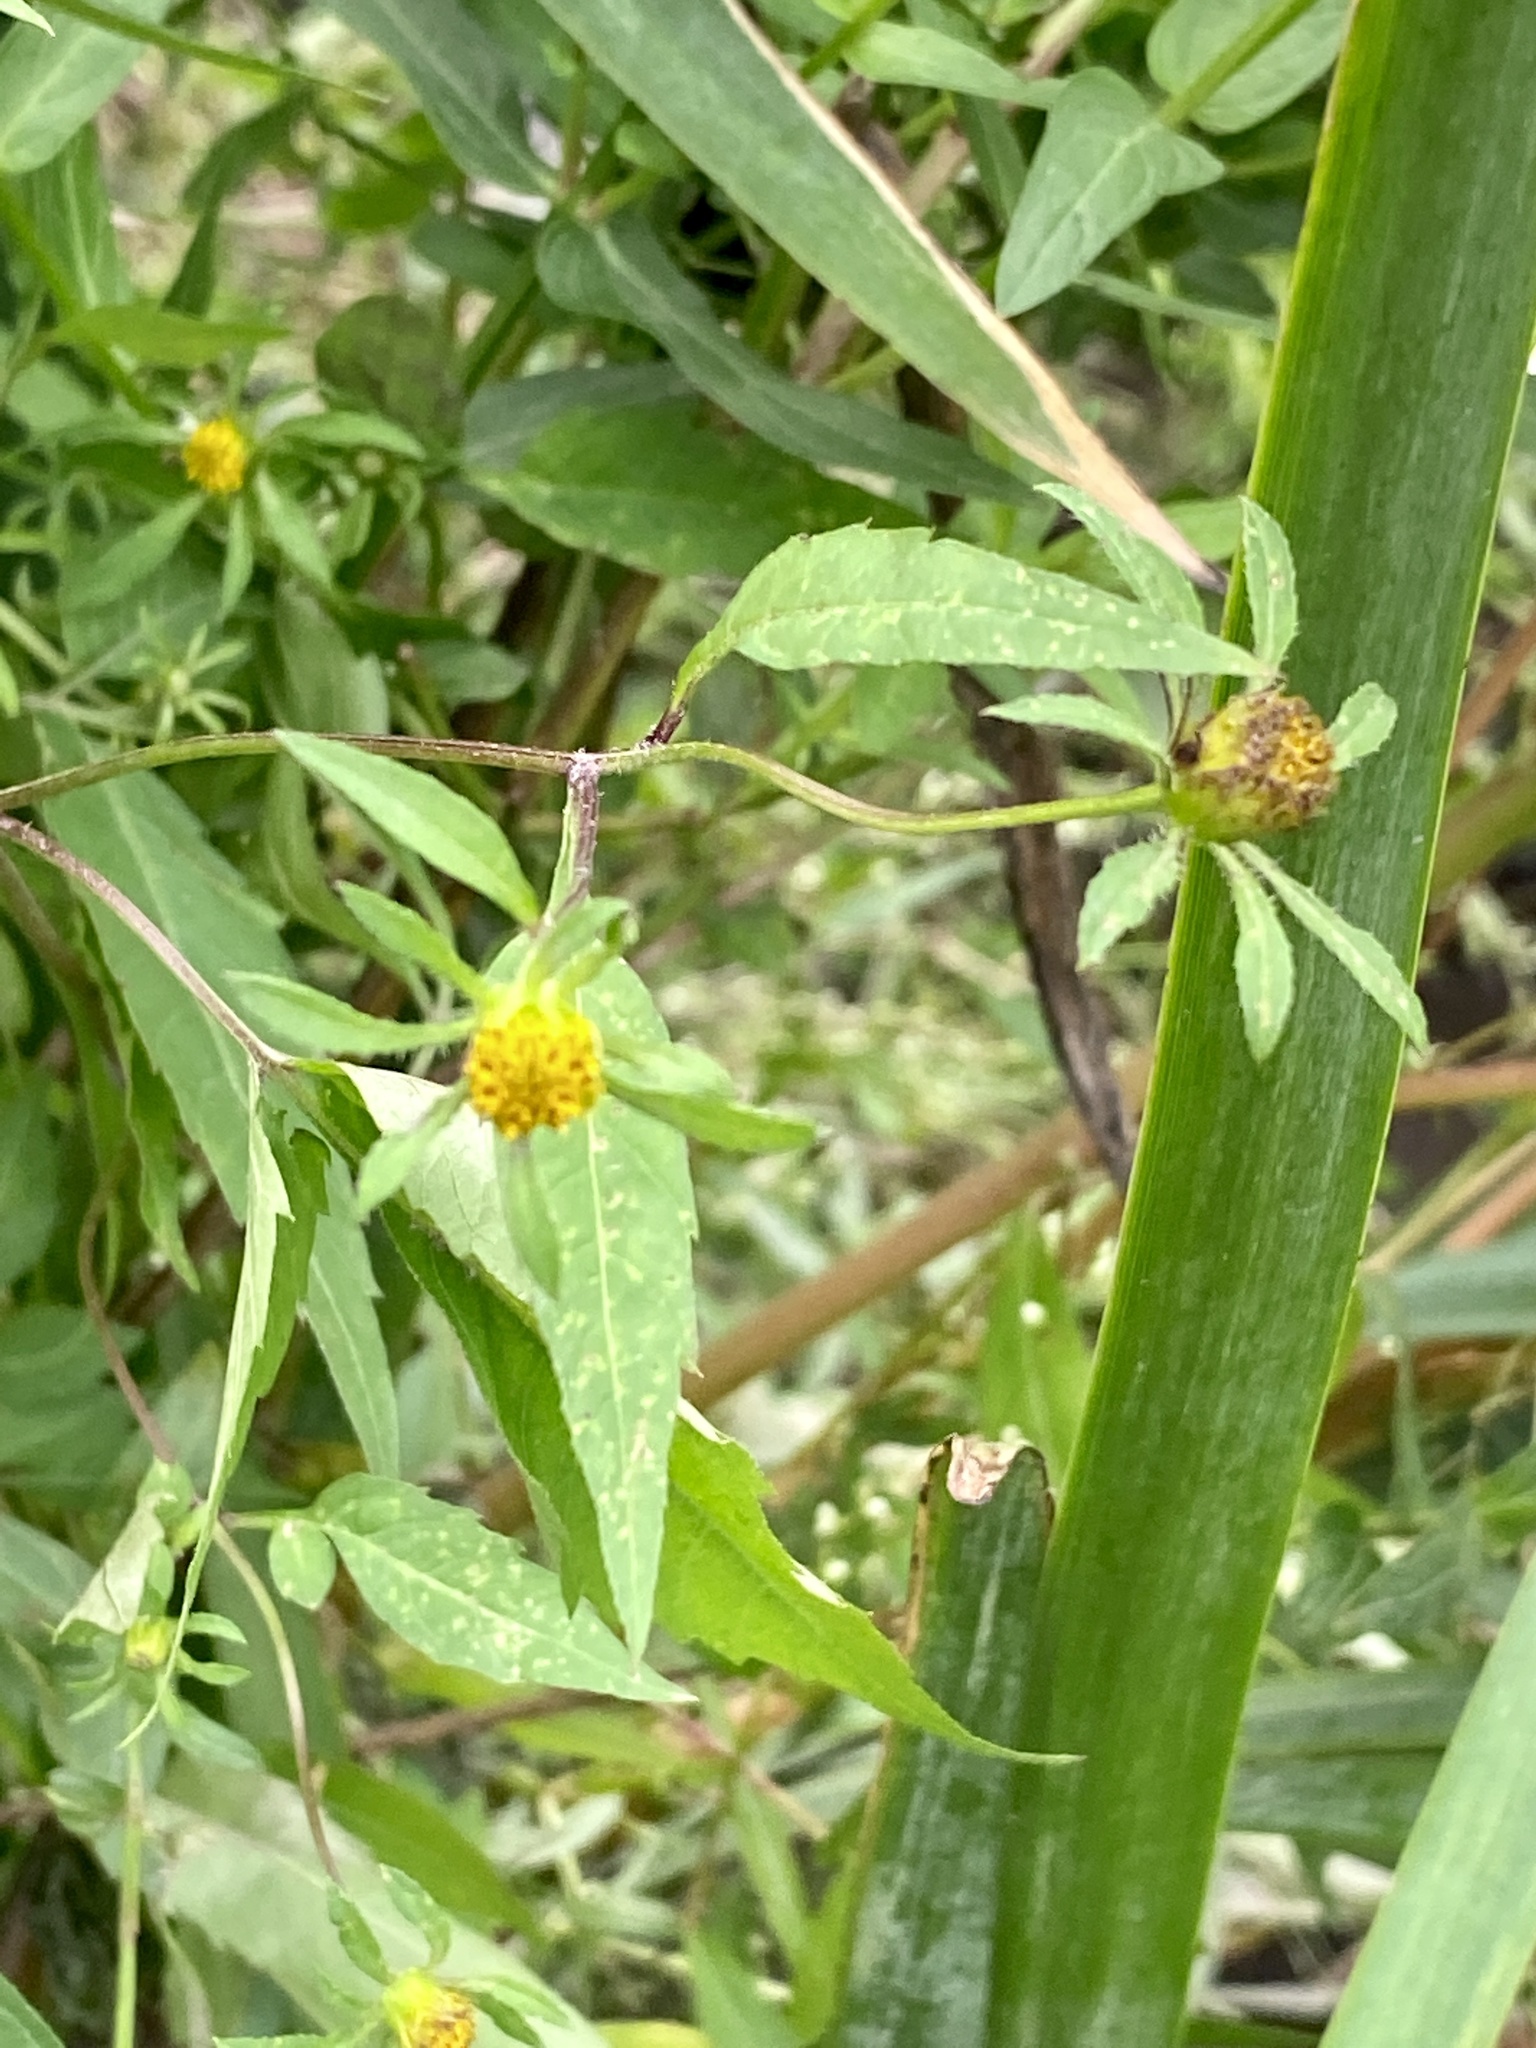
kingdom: Plantae
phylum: Tracheophyta
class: Magnoliopsida
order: Asterales
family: Asteraceae
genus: Bidens
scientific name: Bidens frondosa
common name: Beggarticks
